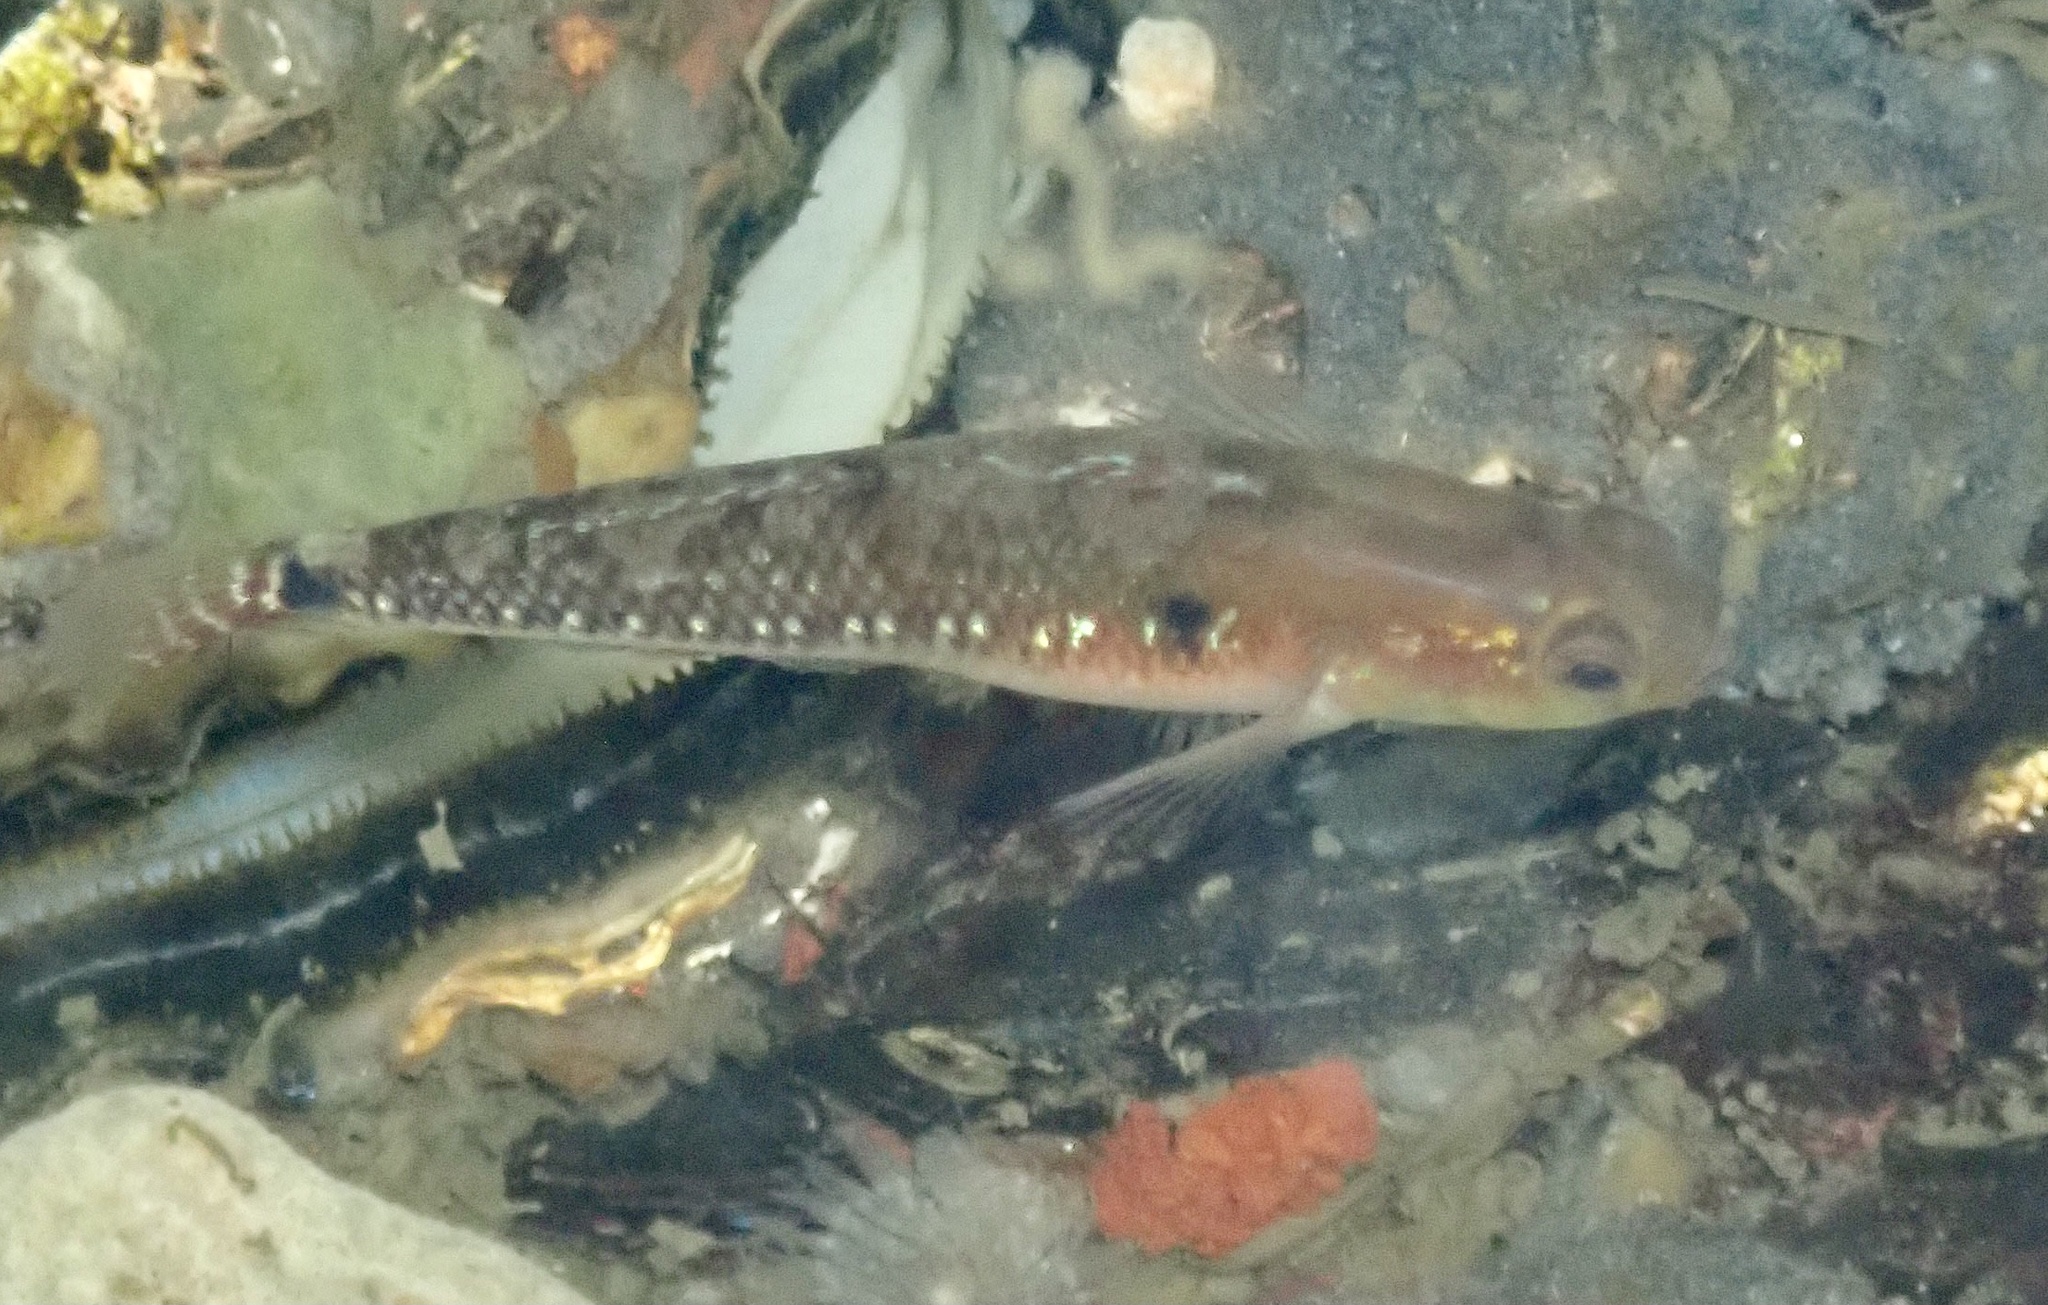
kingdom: Animalia
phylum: Chordata
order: Perciformes
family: Gobiidae
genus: Gobiusculus
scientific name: Gobiusculus flavescens
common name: Two-spotted goby
